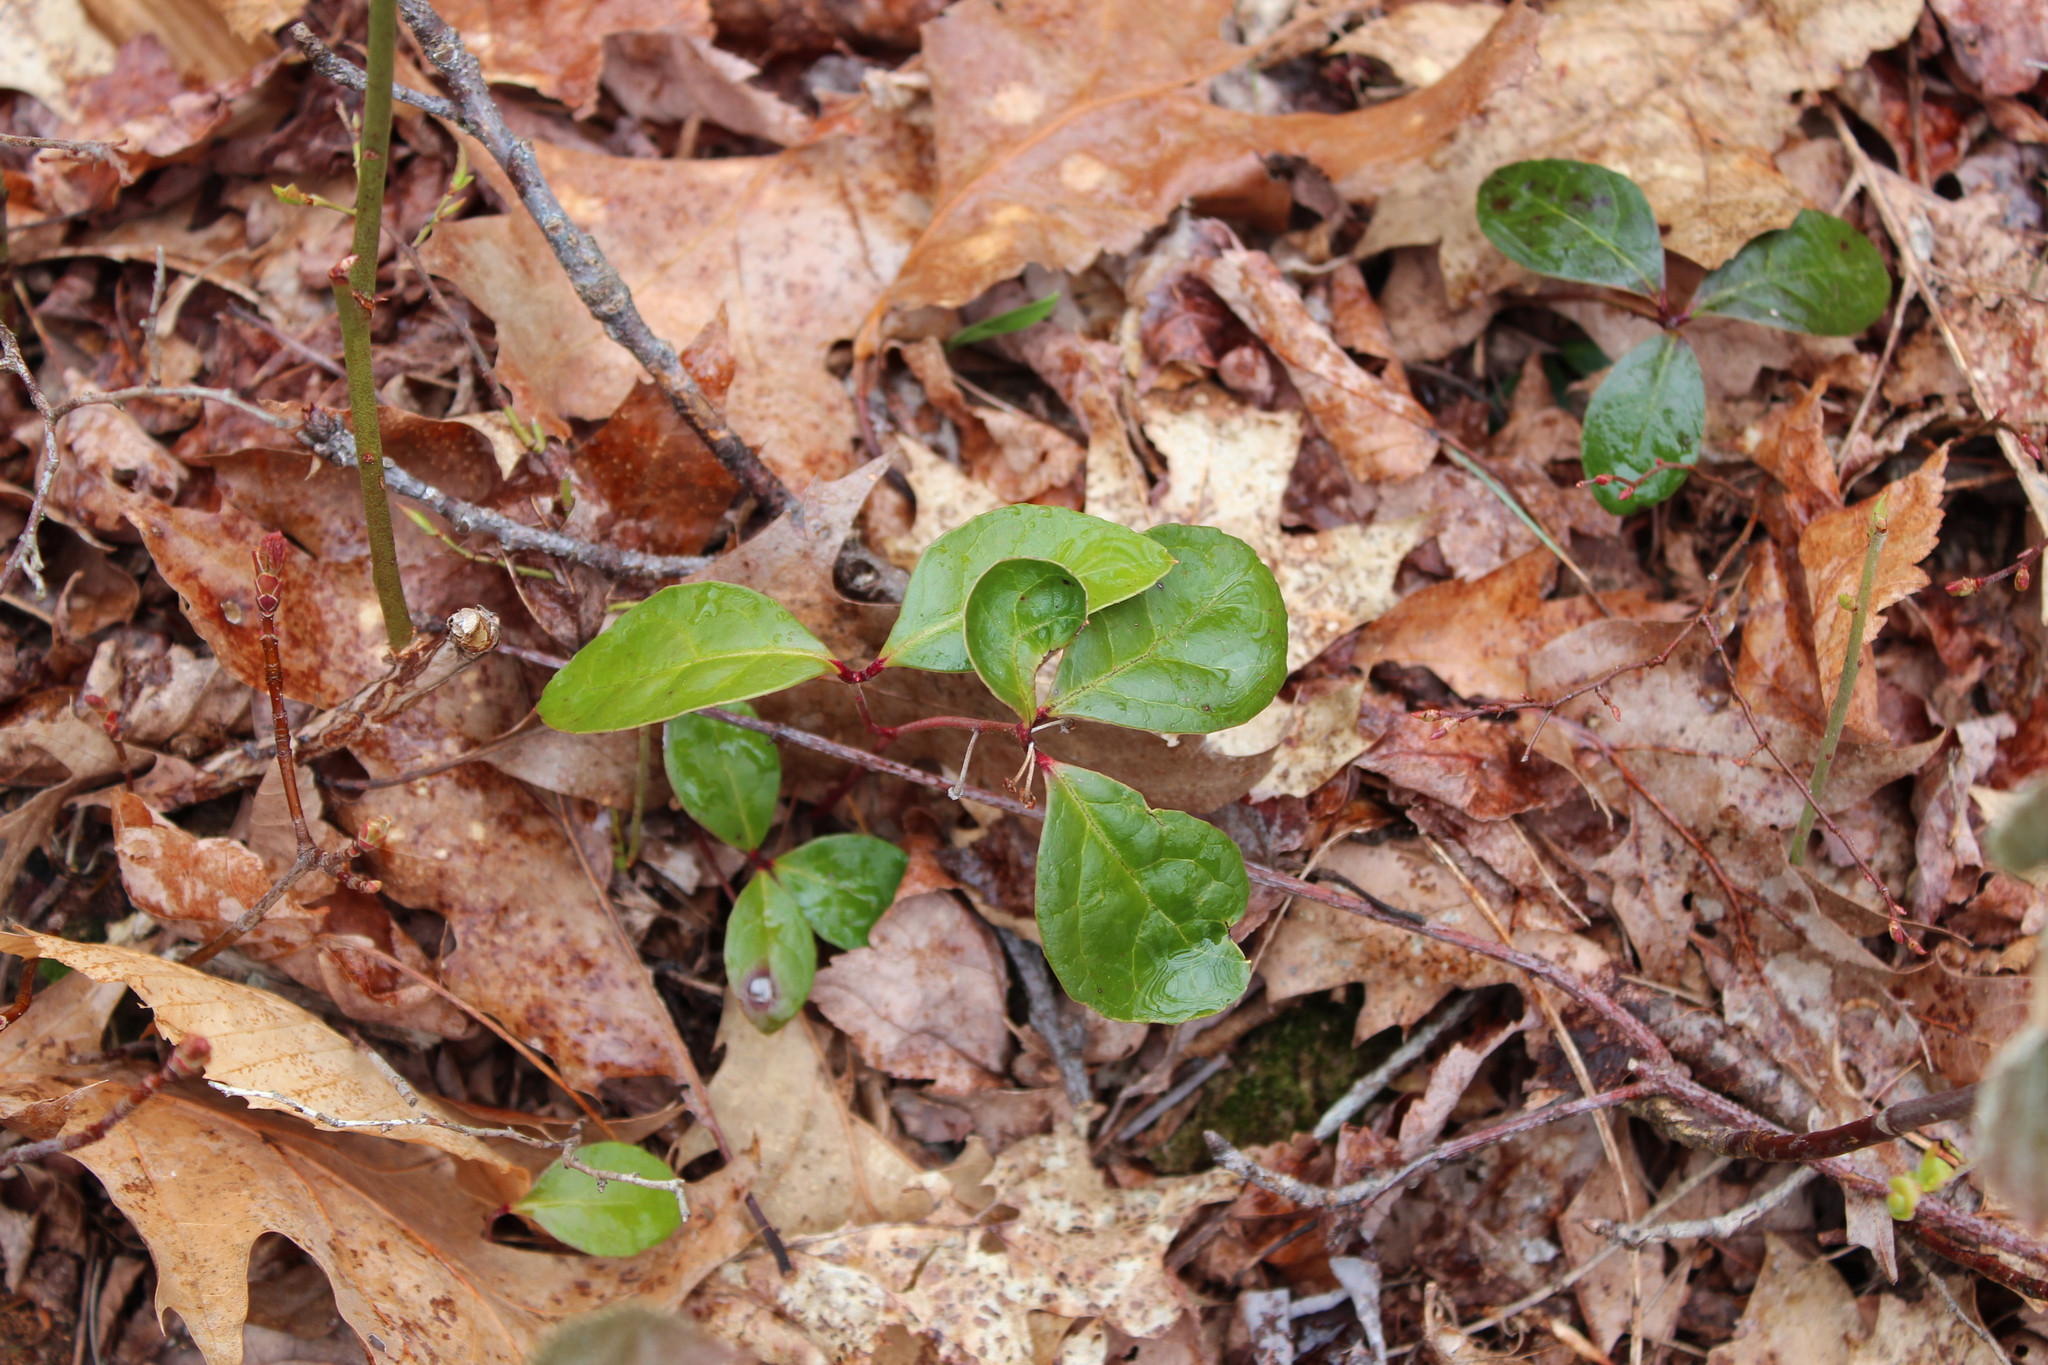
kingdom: Plantae
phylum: Tracheophyta
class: Magnoliopsida
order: Ericales
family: Ericaceae
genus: Gaultheria
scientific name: Gaultheria procumbens
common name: Checkerberry
